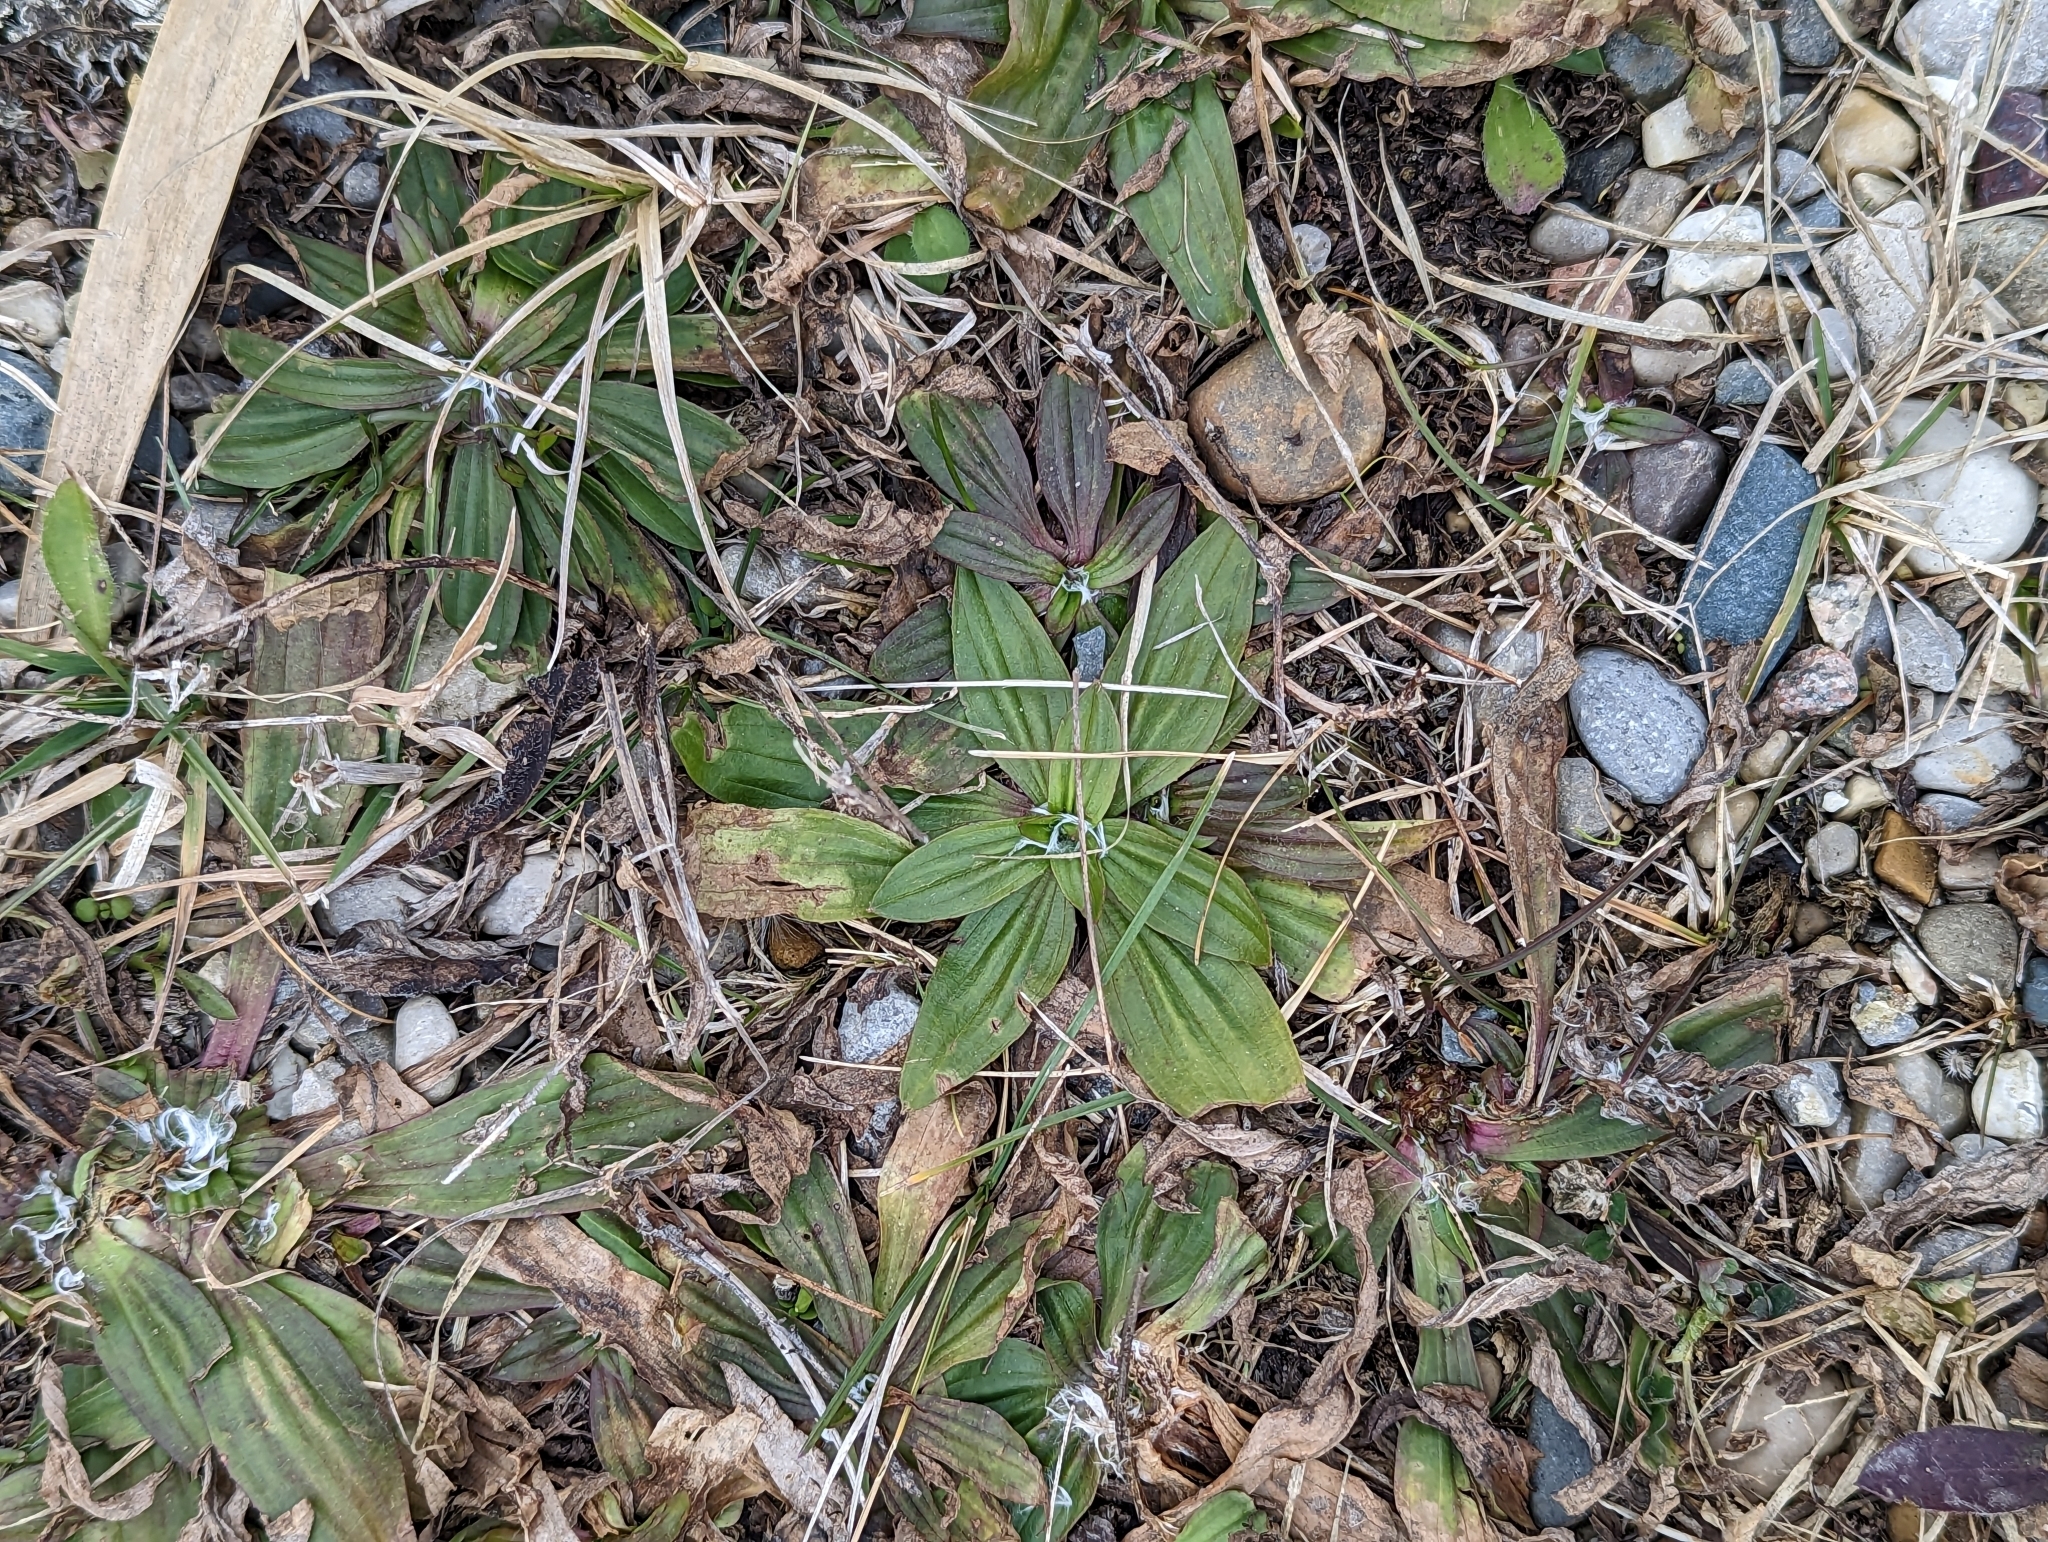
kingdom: Plantae
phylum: Tracheophyta
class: Magnoliopsida
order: Lamiales
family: Plantaginaceae
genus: Plantago
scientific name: Plantago lanceolata
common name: Ribwort plantain
